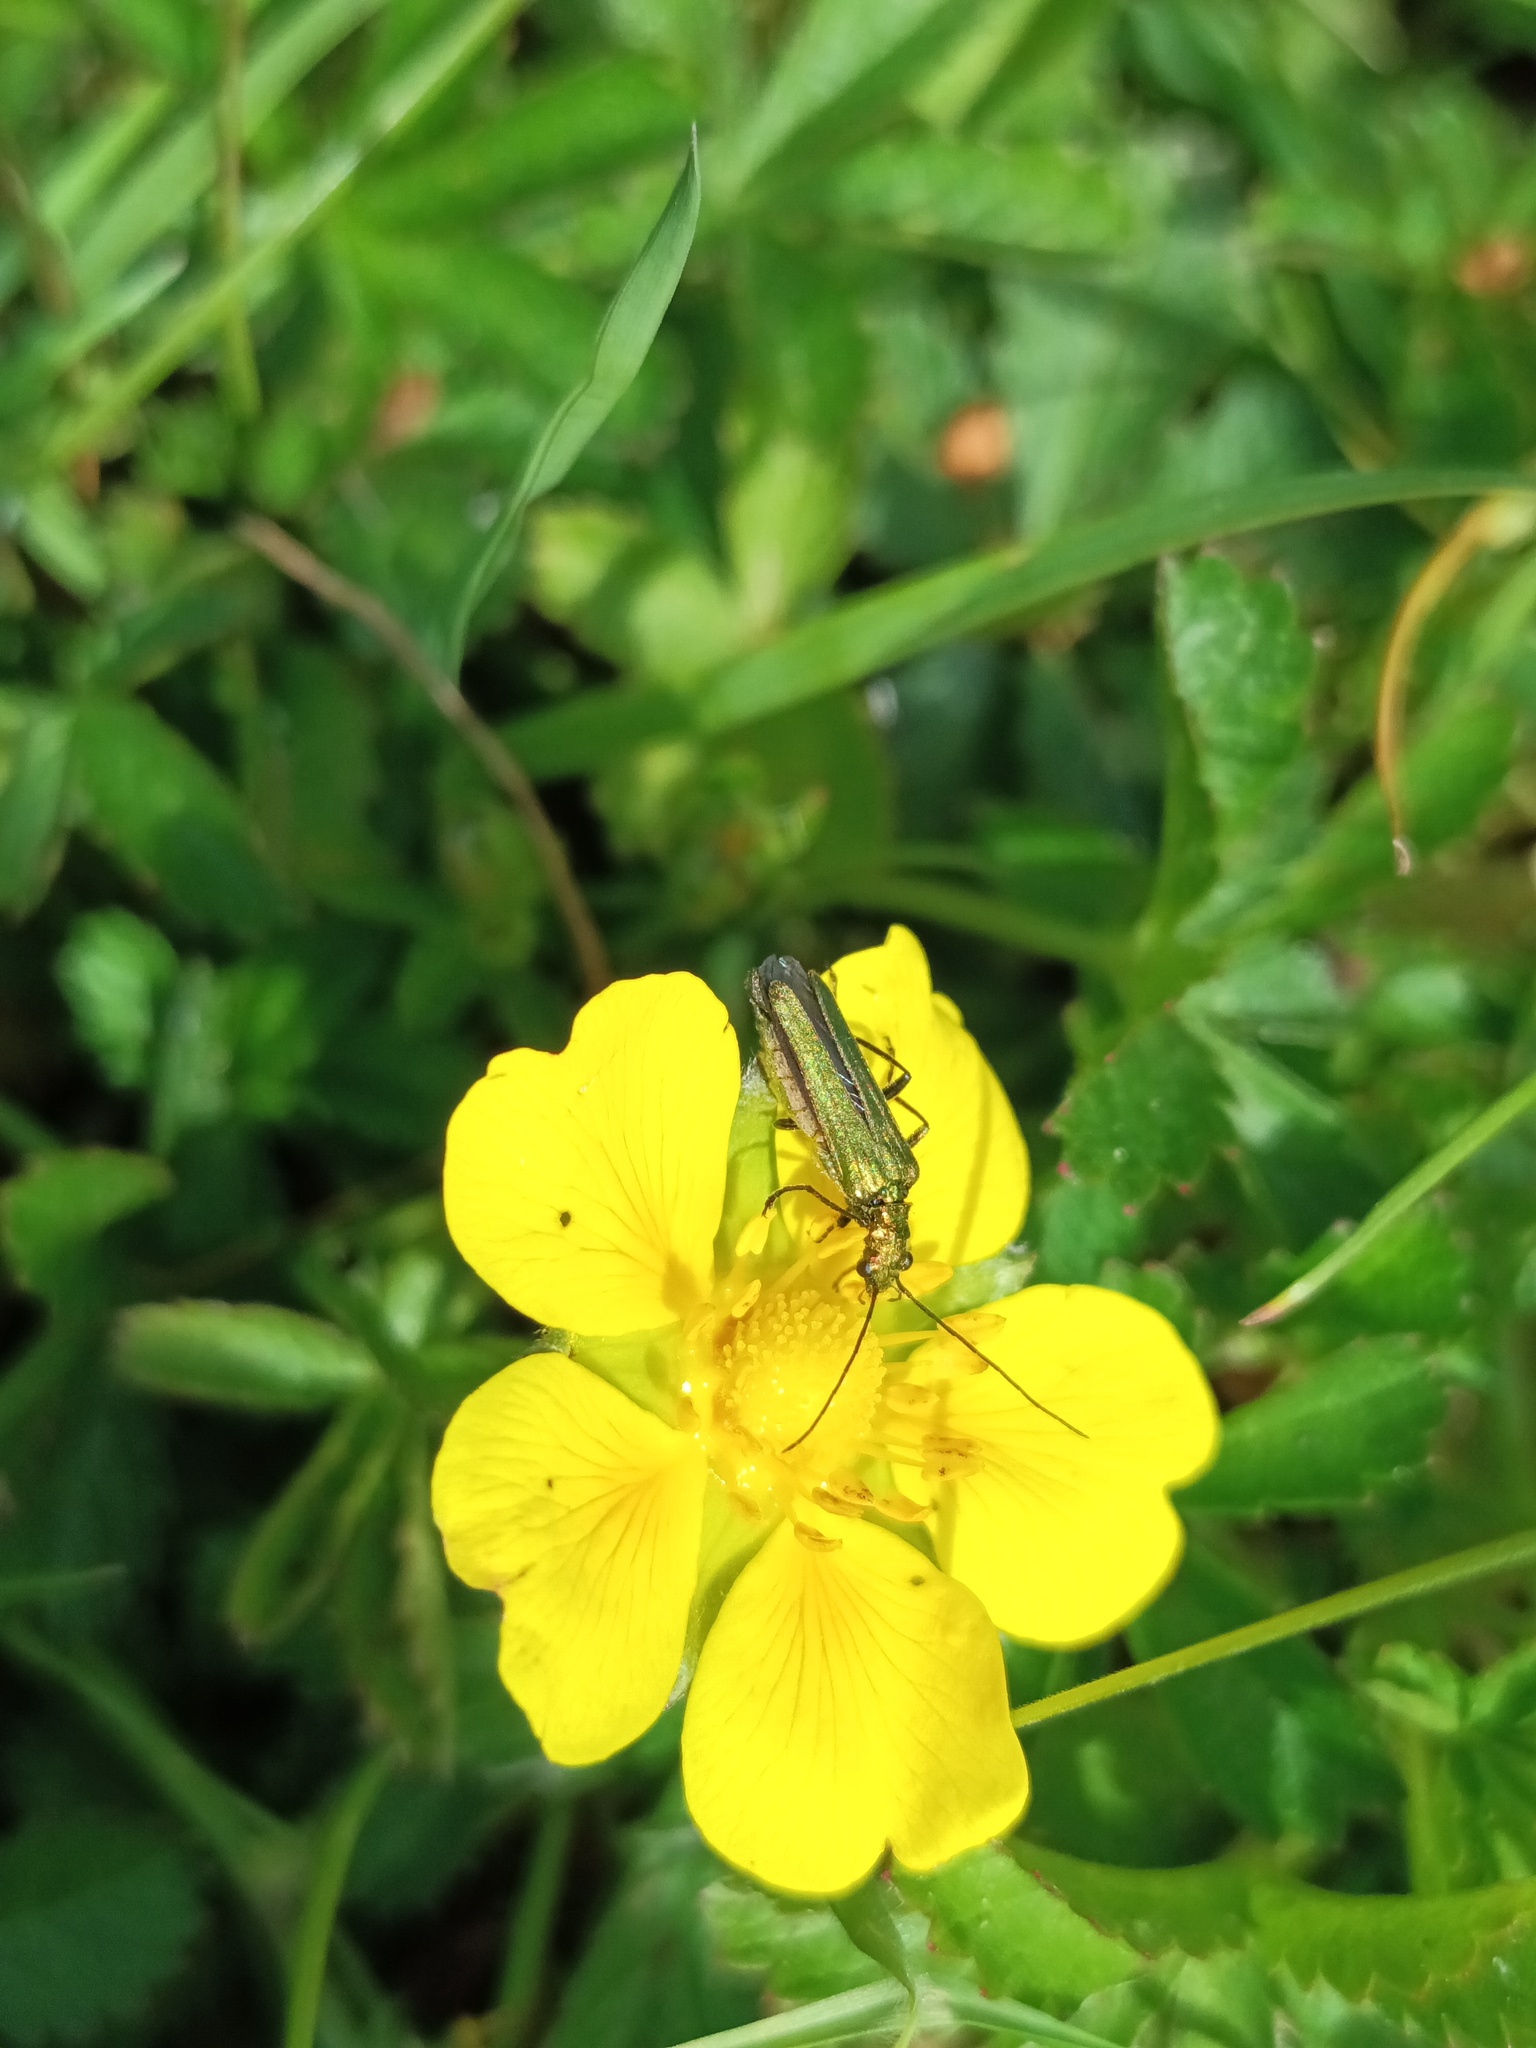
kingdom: Animalia
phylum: Arthropoda
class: Insecta
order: Coleoptera
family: Oedemeridae
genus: Oedemera
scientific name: Oedemera nobilis
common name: Swollen-thighed beetle
